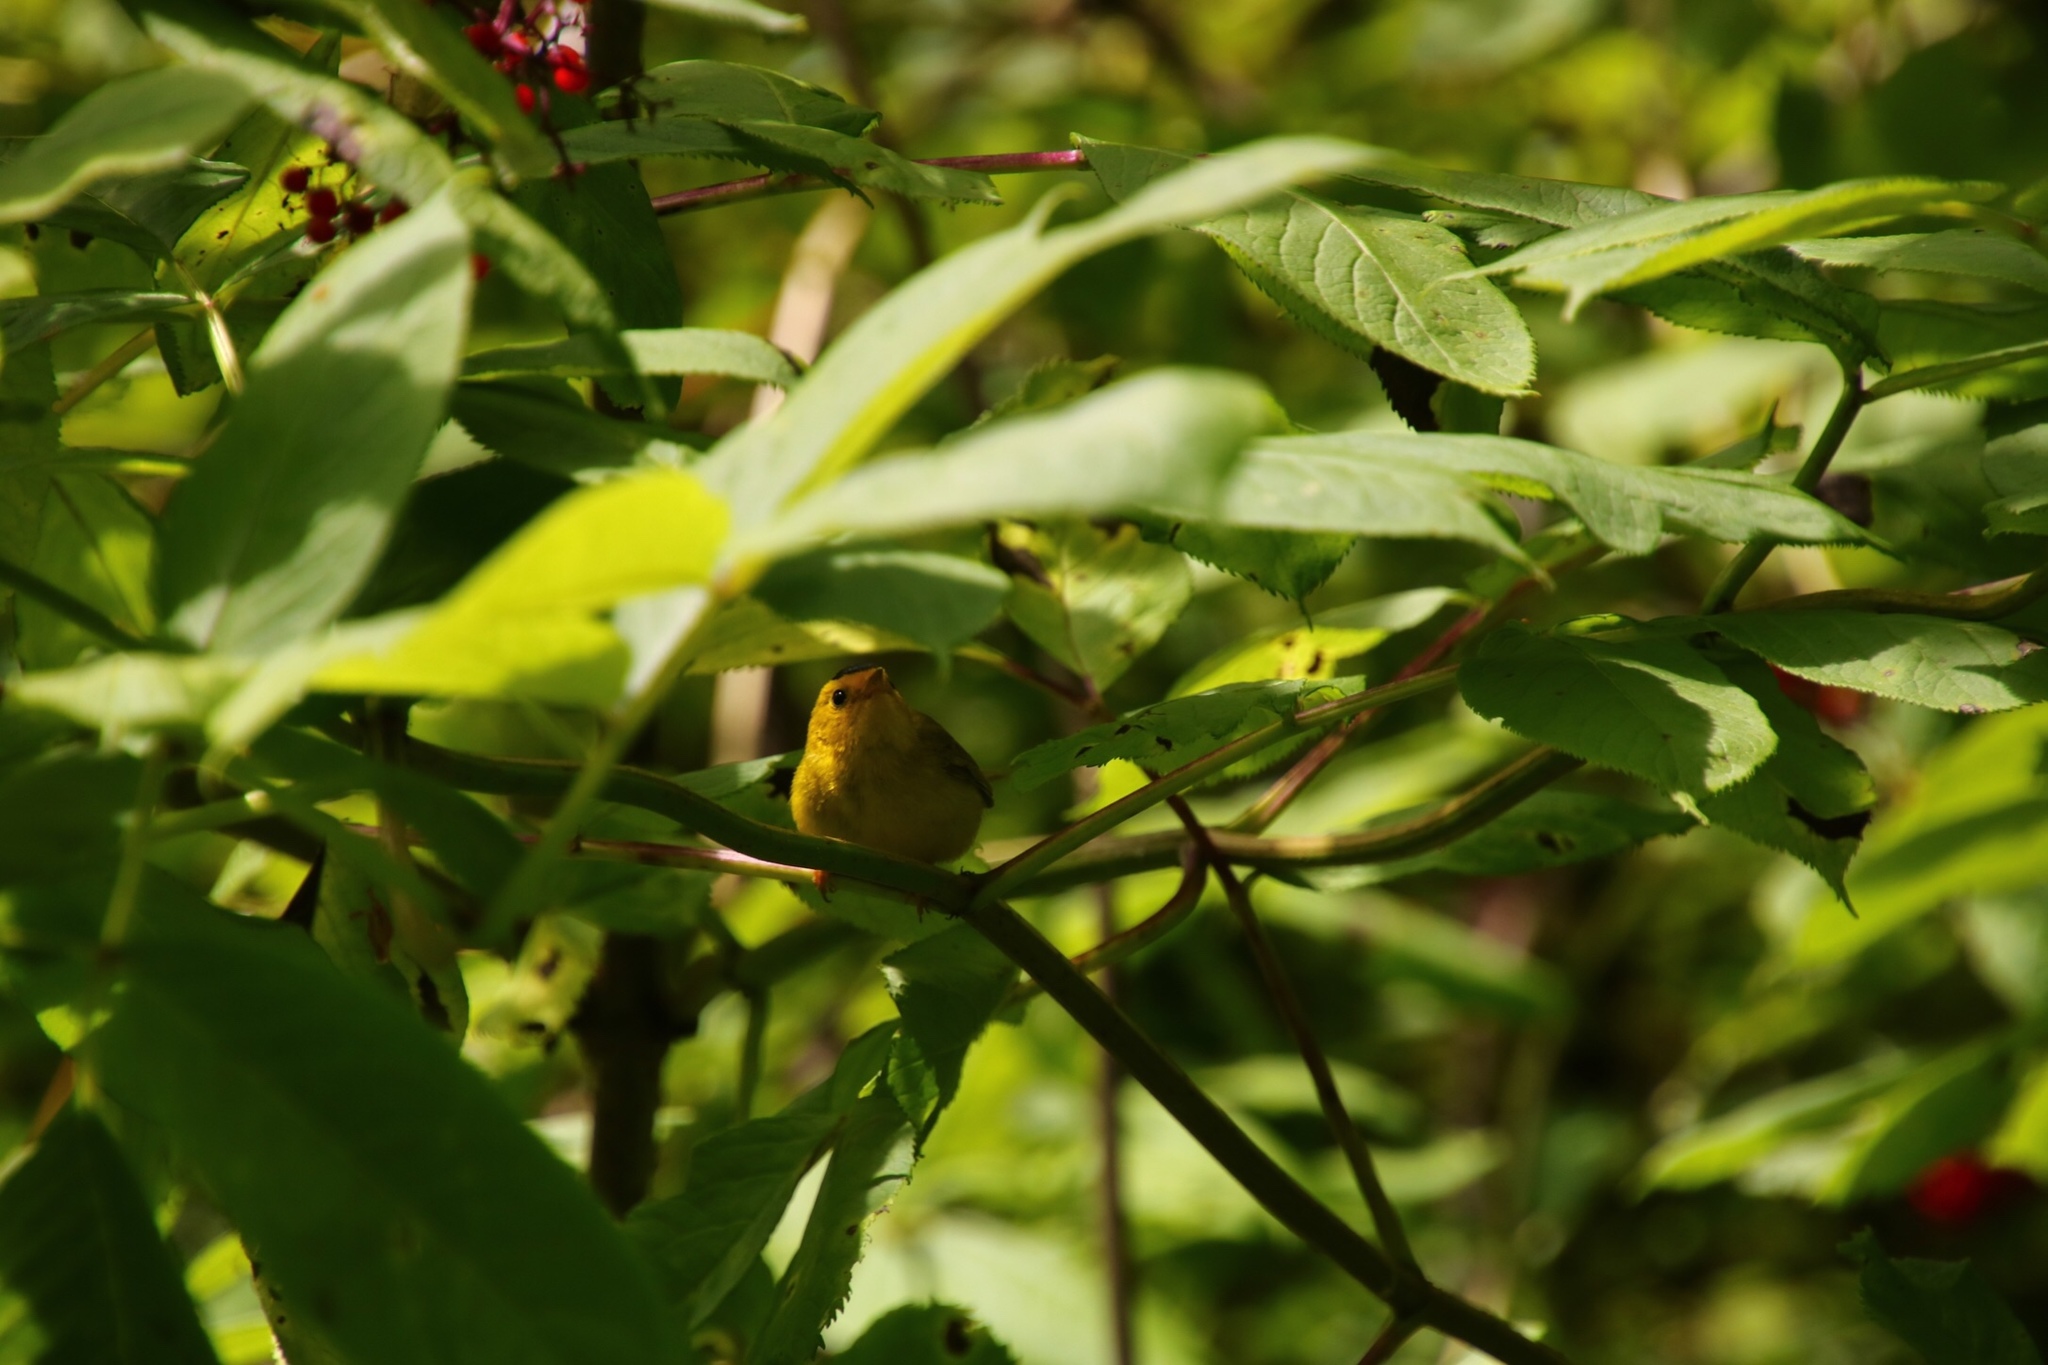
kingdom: Animalia
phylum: Chordata
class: Aves
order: Passeriformes
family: Parulidae
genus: Cardellina
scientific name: Cardellina pusilla
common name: Wilson's warbler
